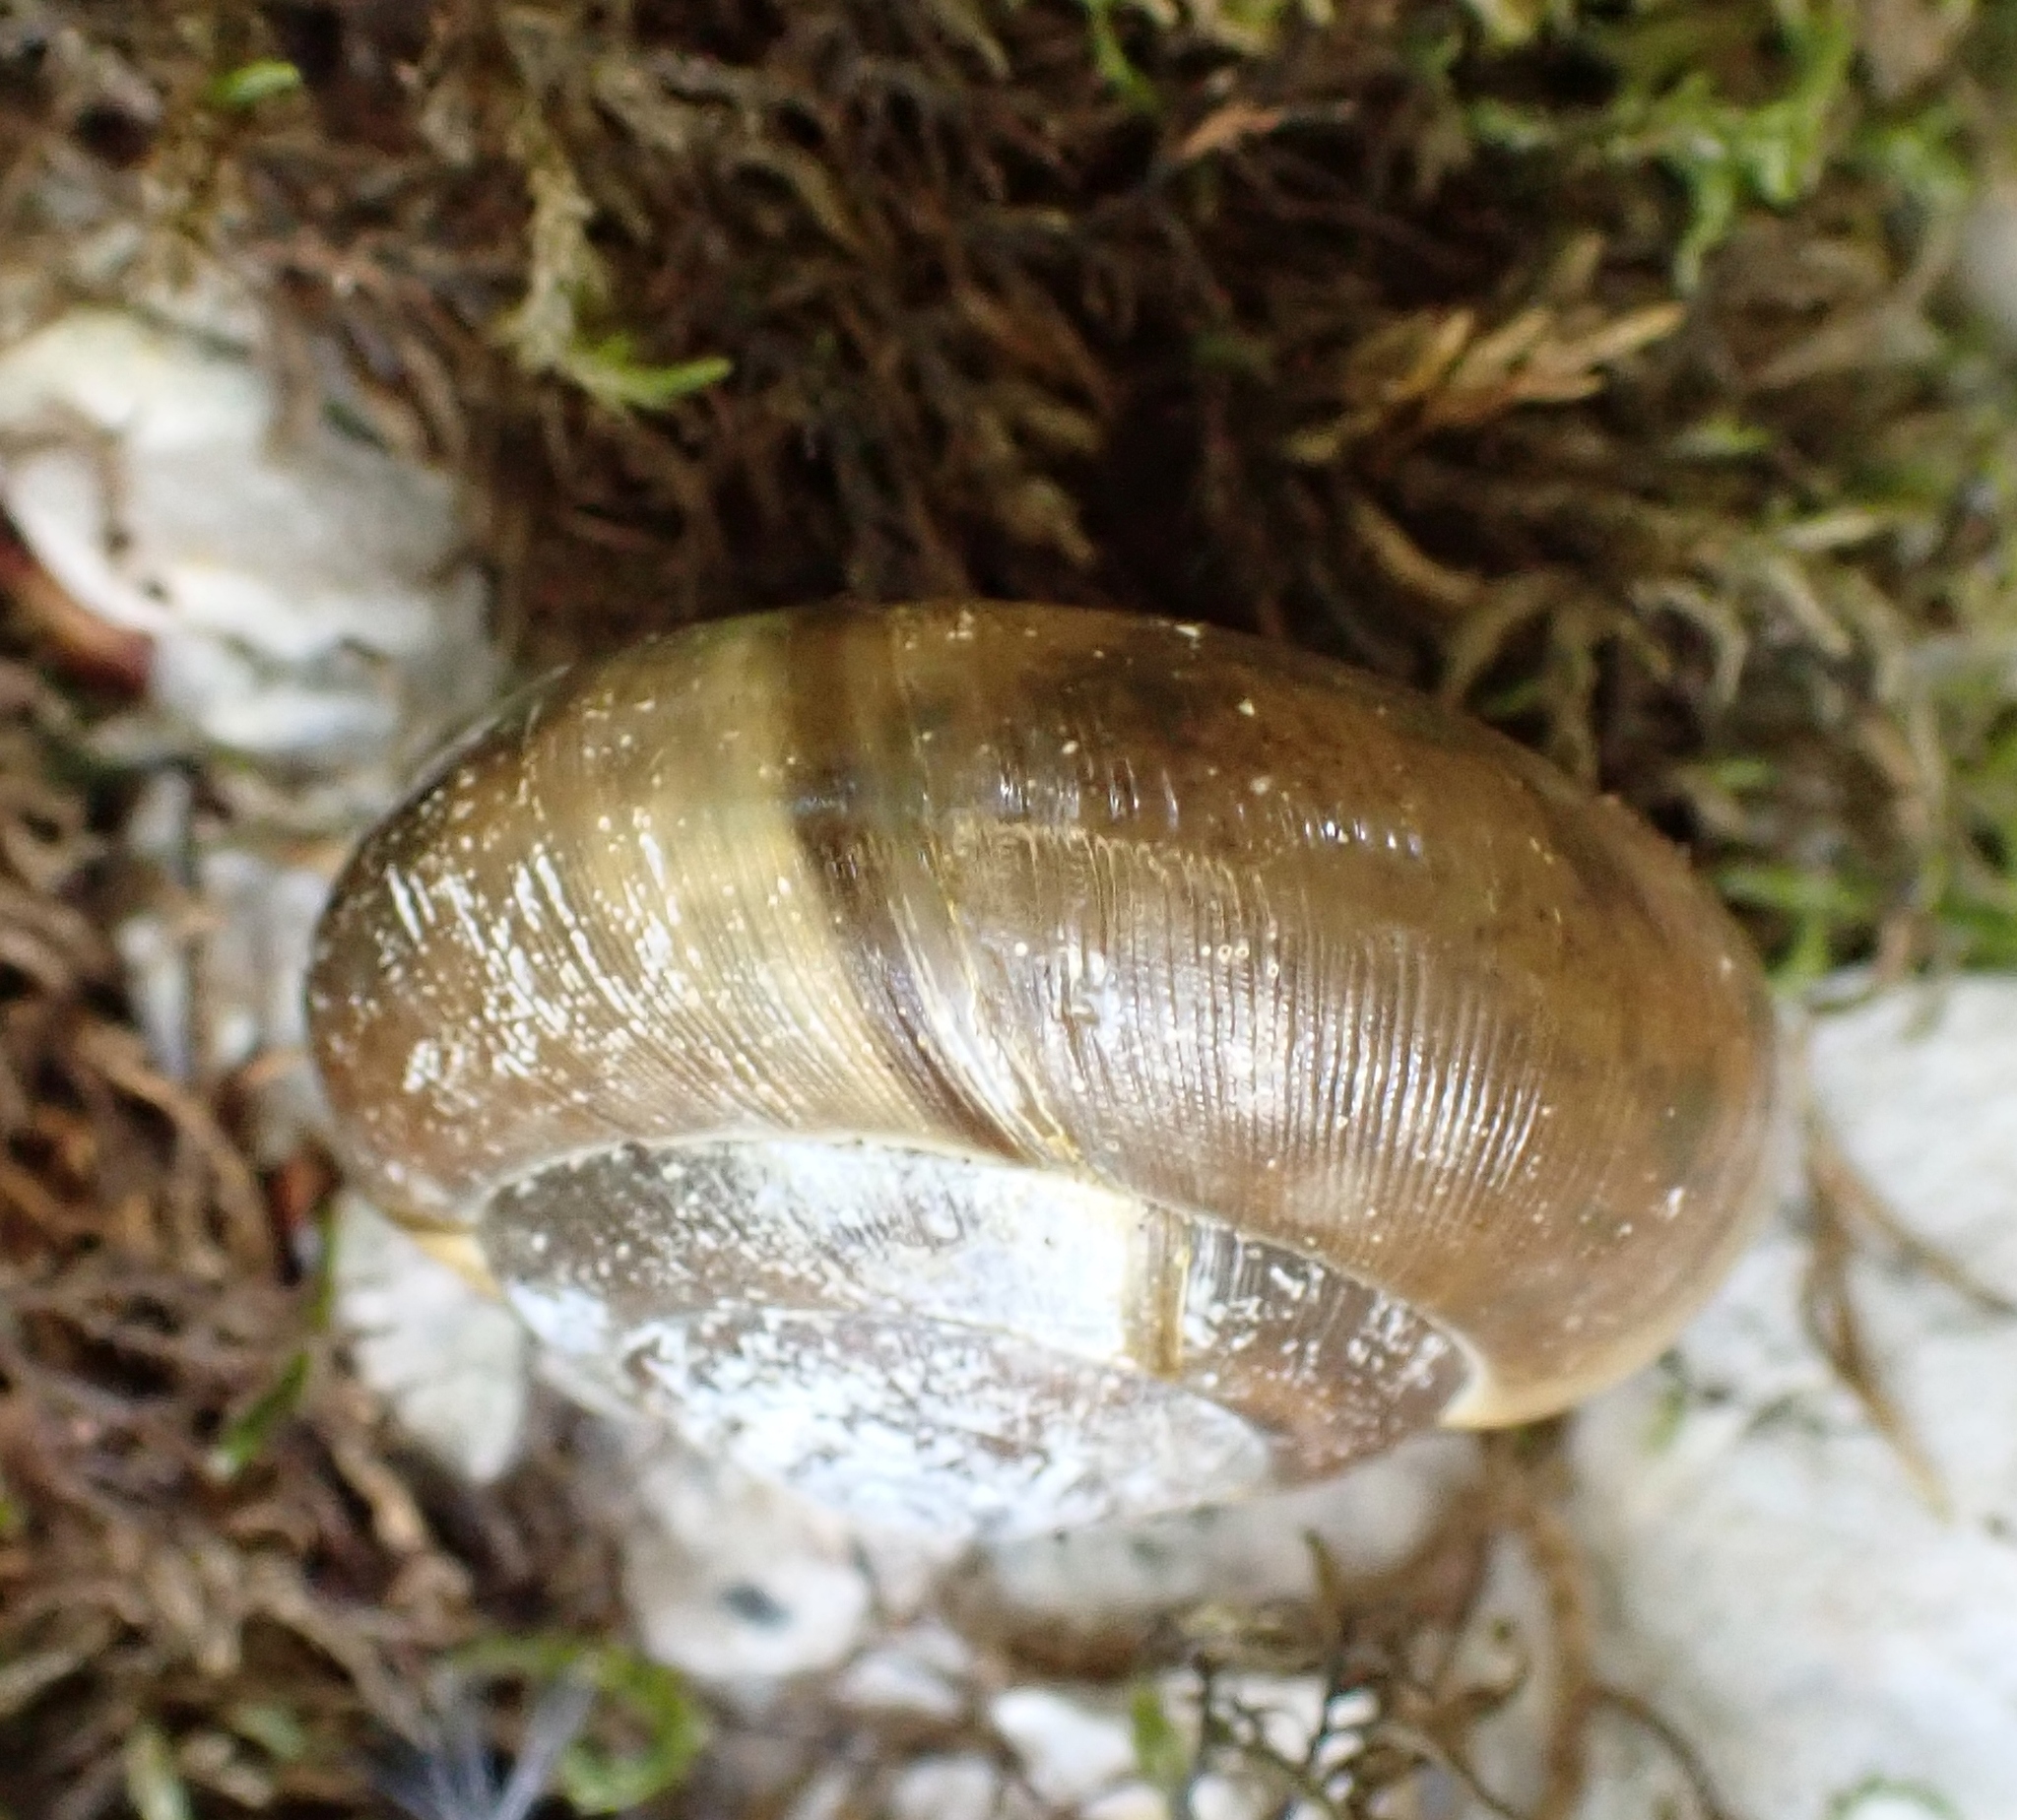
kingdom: Animalia
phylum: Mollusca
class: Gastropoda
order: Stylommatophora
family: Zonitidae
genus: Aegopis
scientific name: Aegopis verticillus
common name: Giant glass snail
